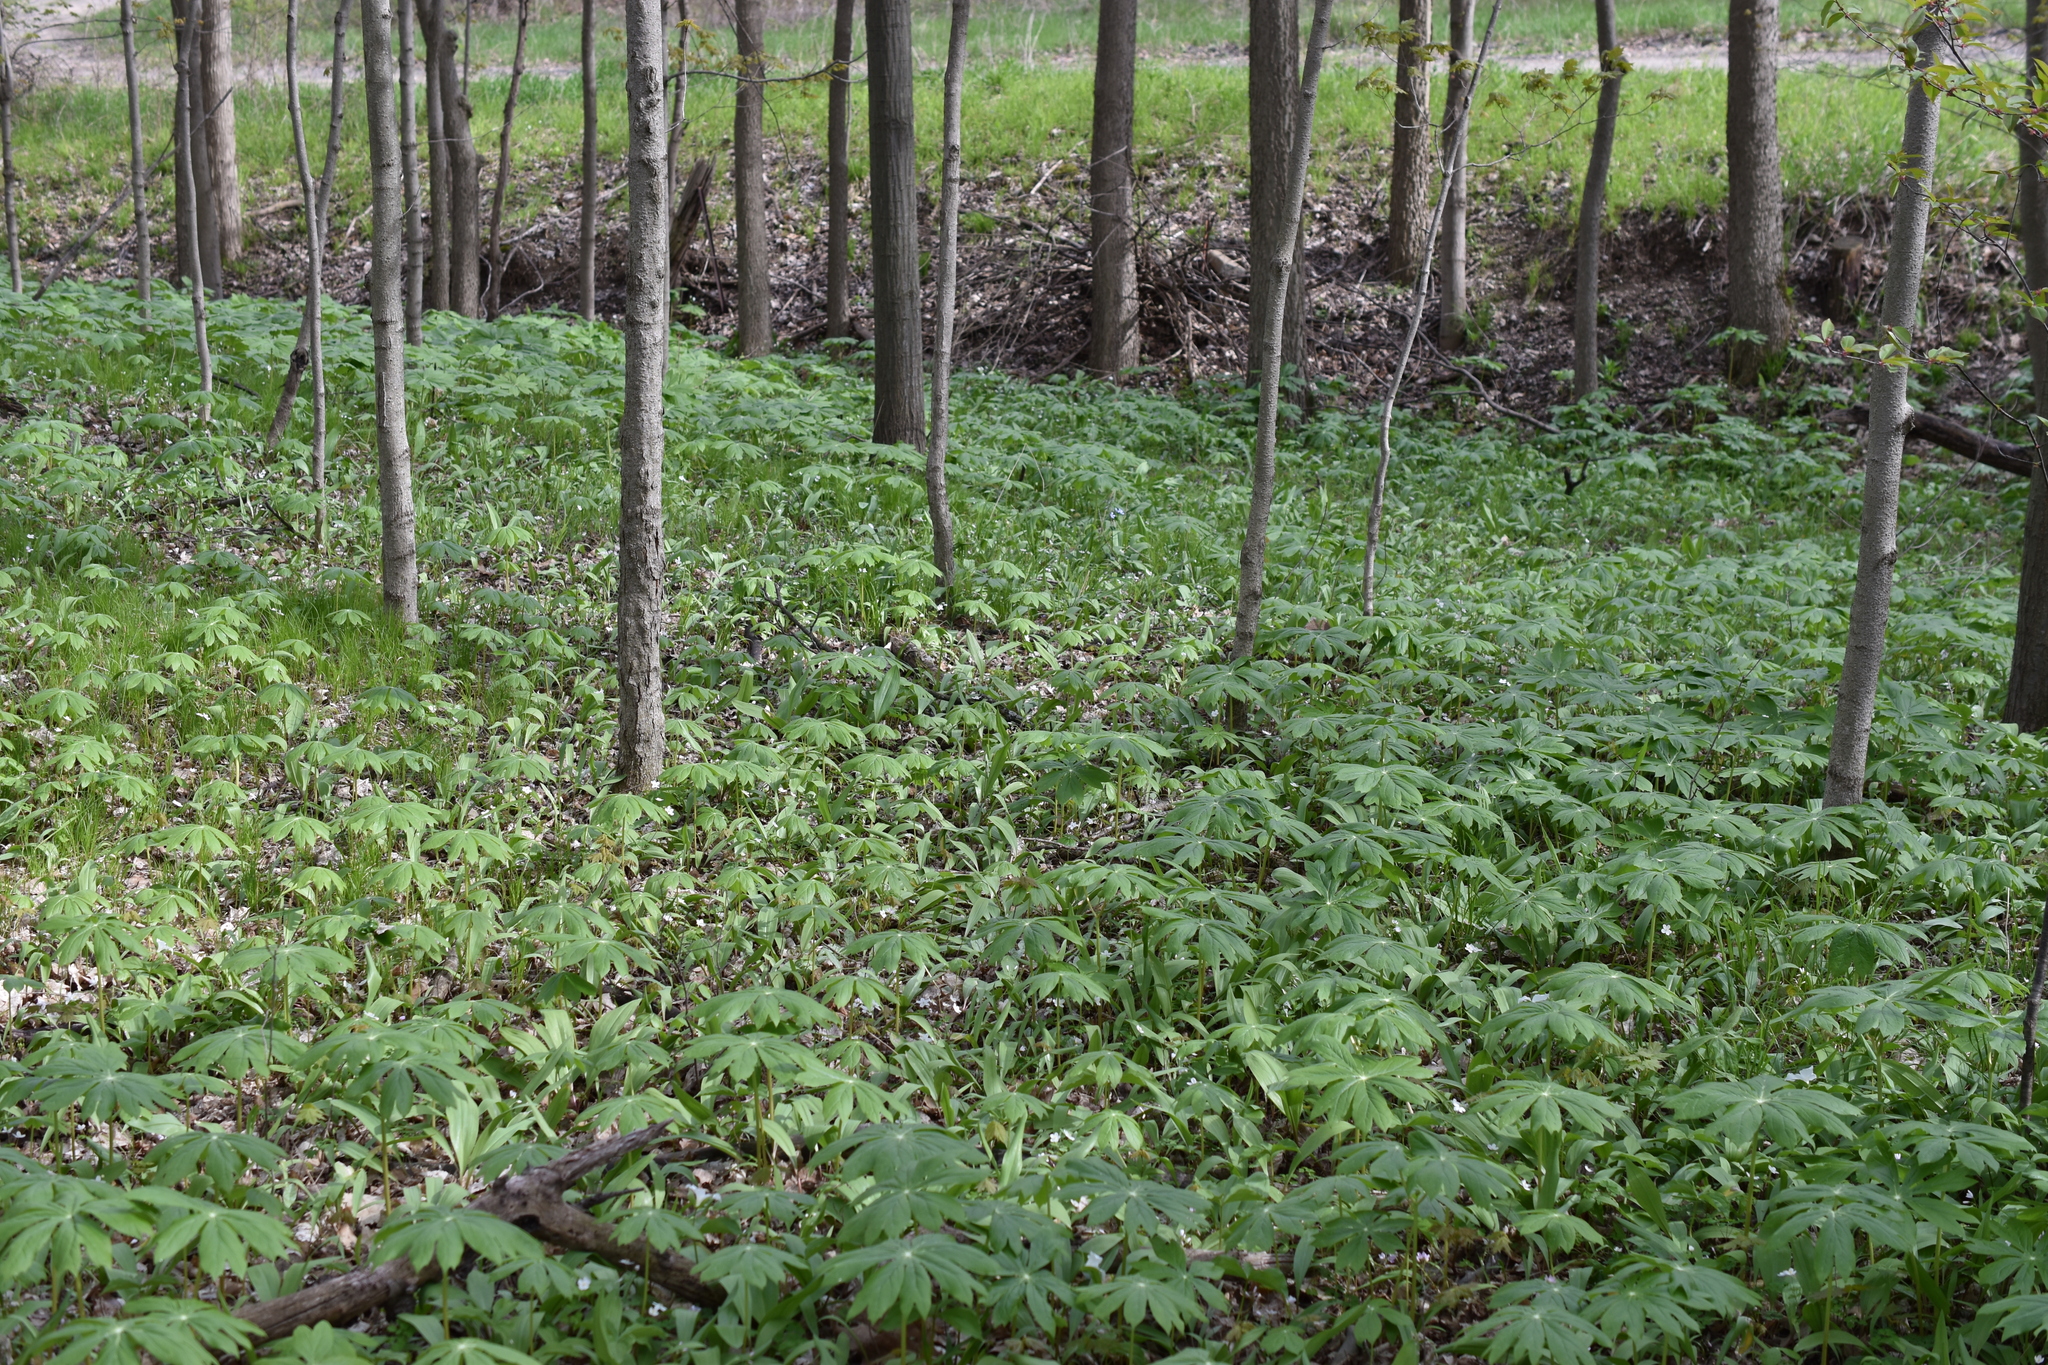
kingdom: Plantae
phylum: Tracheophyta
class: Magnoliopsida
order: Ranunculales
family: Berberidaceae
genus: Podophyllum
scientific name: Podophyllum peltatum
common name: Wild mandrake
